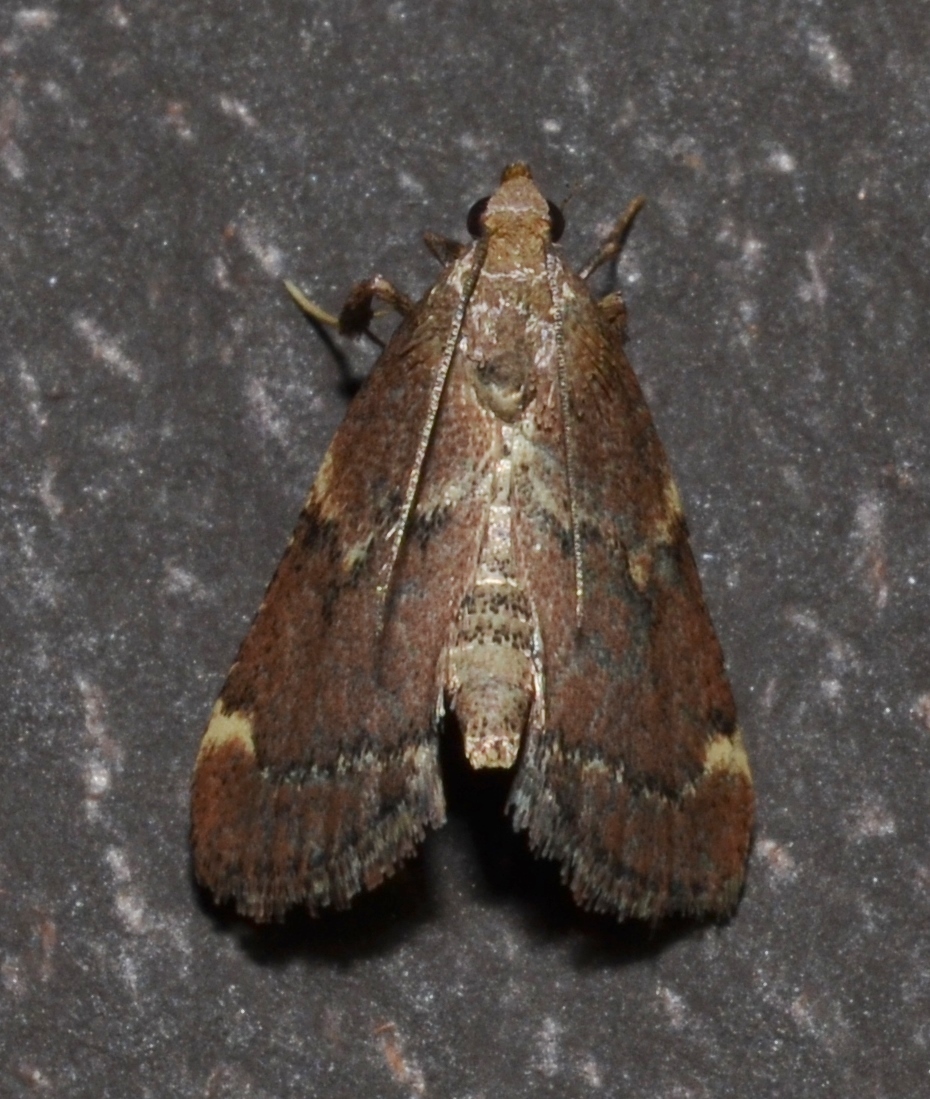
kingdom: Animalia
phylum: Arthropoda
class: Insecta
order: Lepidoptera
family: Pyralidae
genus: Hypsopygia
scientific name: Hypsopygia intermedialis
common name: Red-shawled moth
